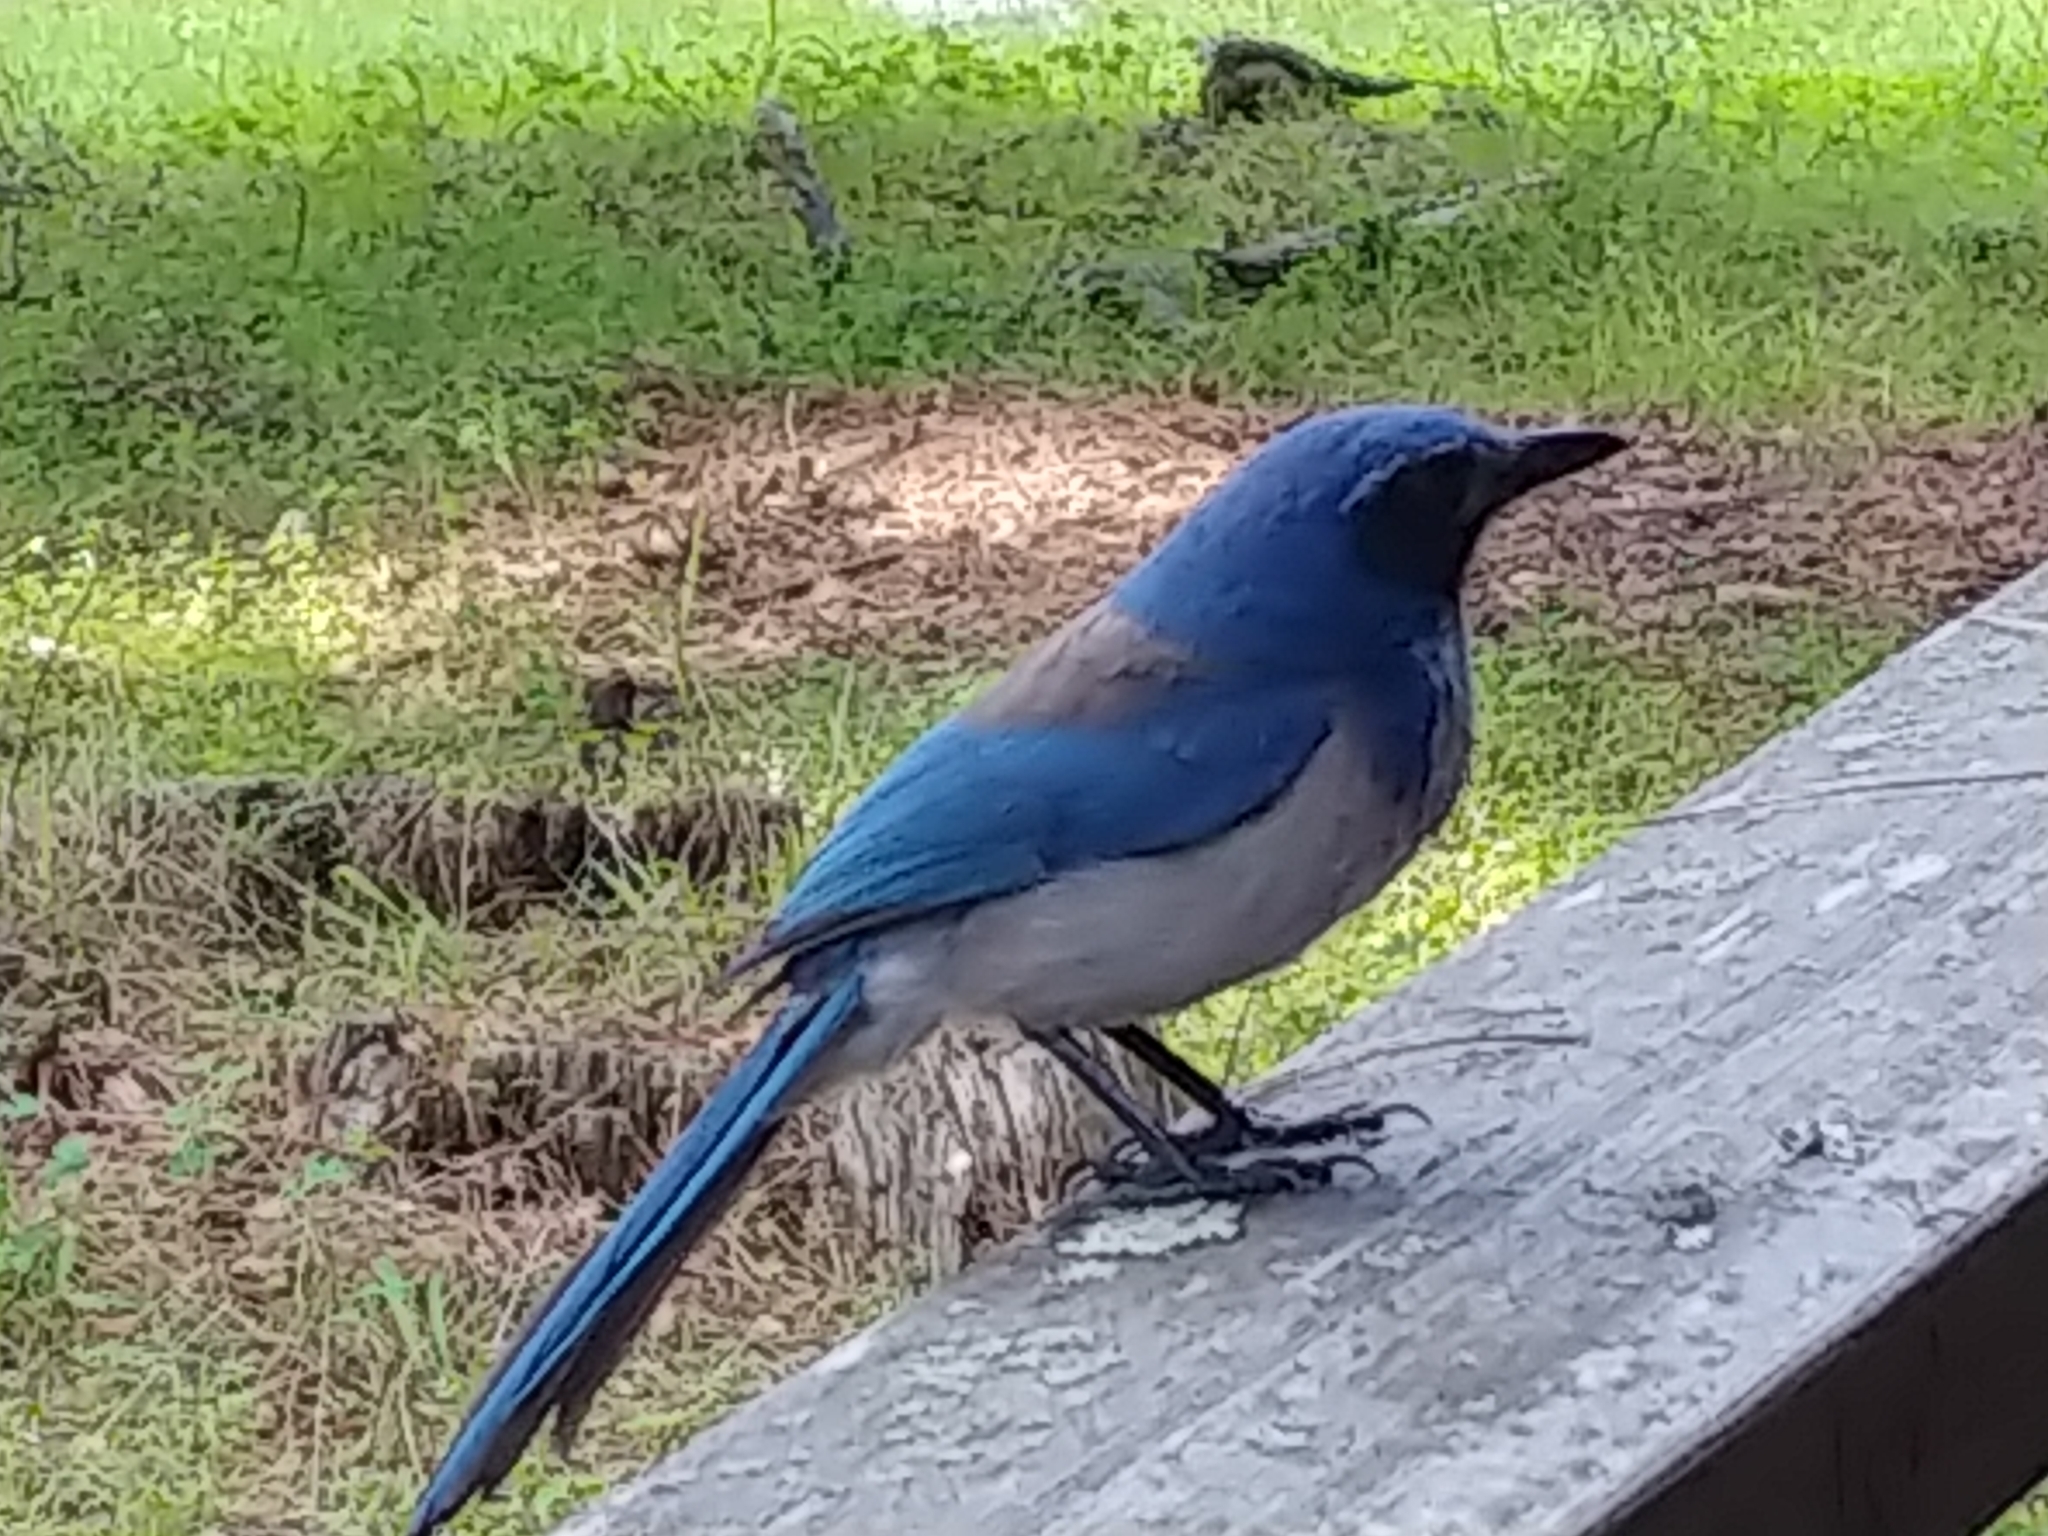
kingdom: Animalia
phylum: Chordata
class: Aves
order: Passeriformes
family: Corvidae
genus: Aphelocoma
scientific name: Aphelocoma californica
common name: California scrub-jay
